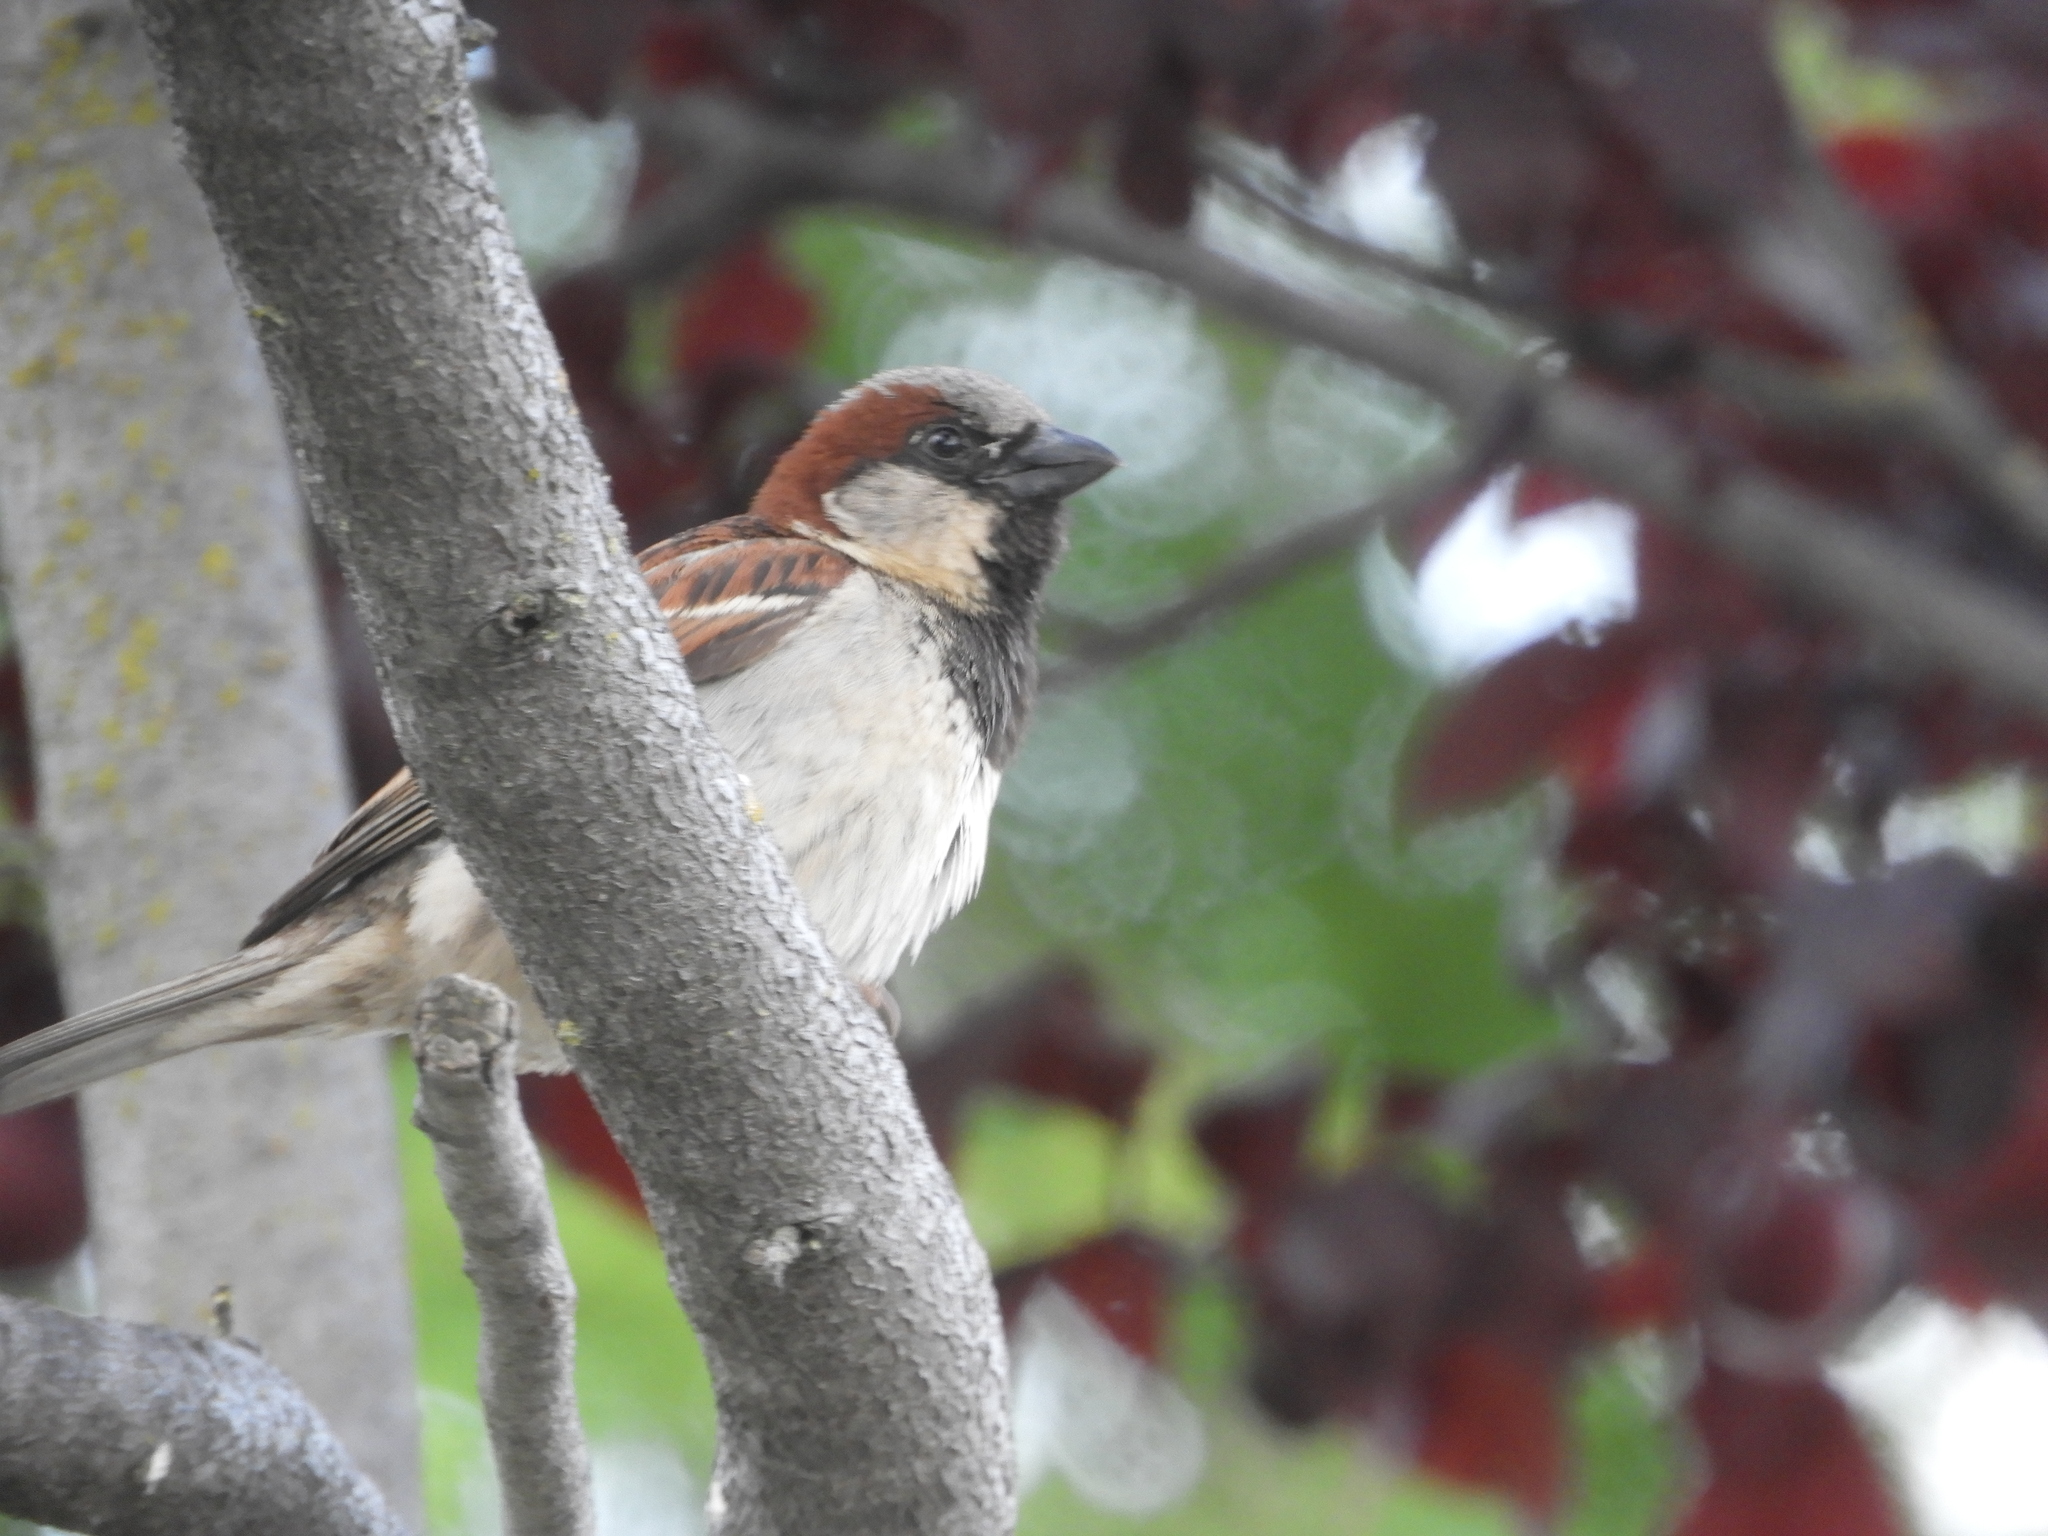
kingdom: Animalia
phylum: Chordata
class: Aves
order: Passeriformes
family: Passeridae
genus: Passer
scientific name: Passer domesticus
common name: House sparrow
